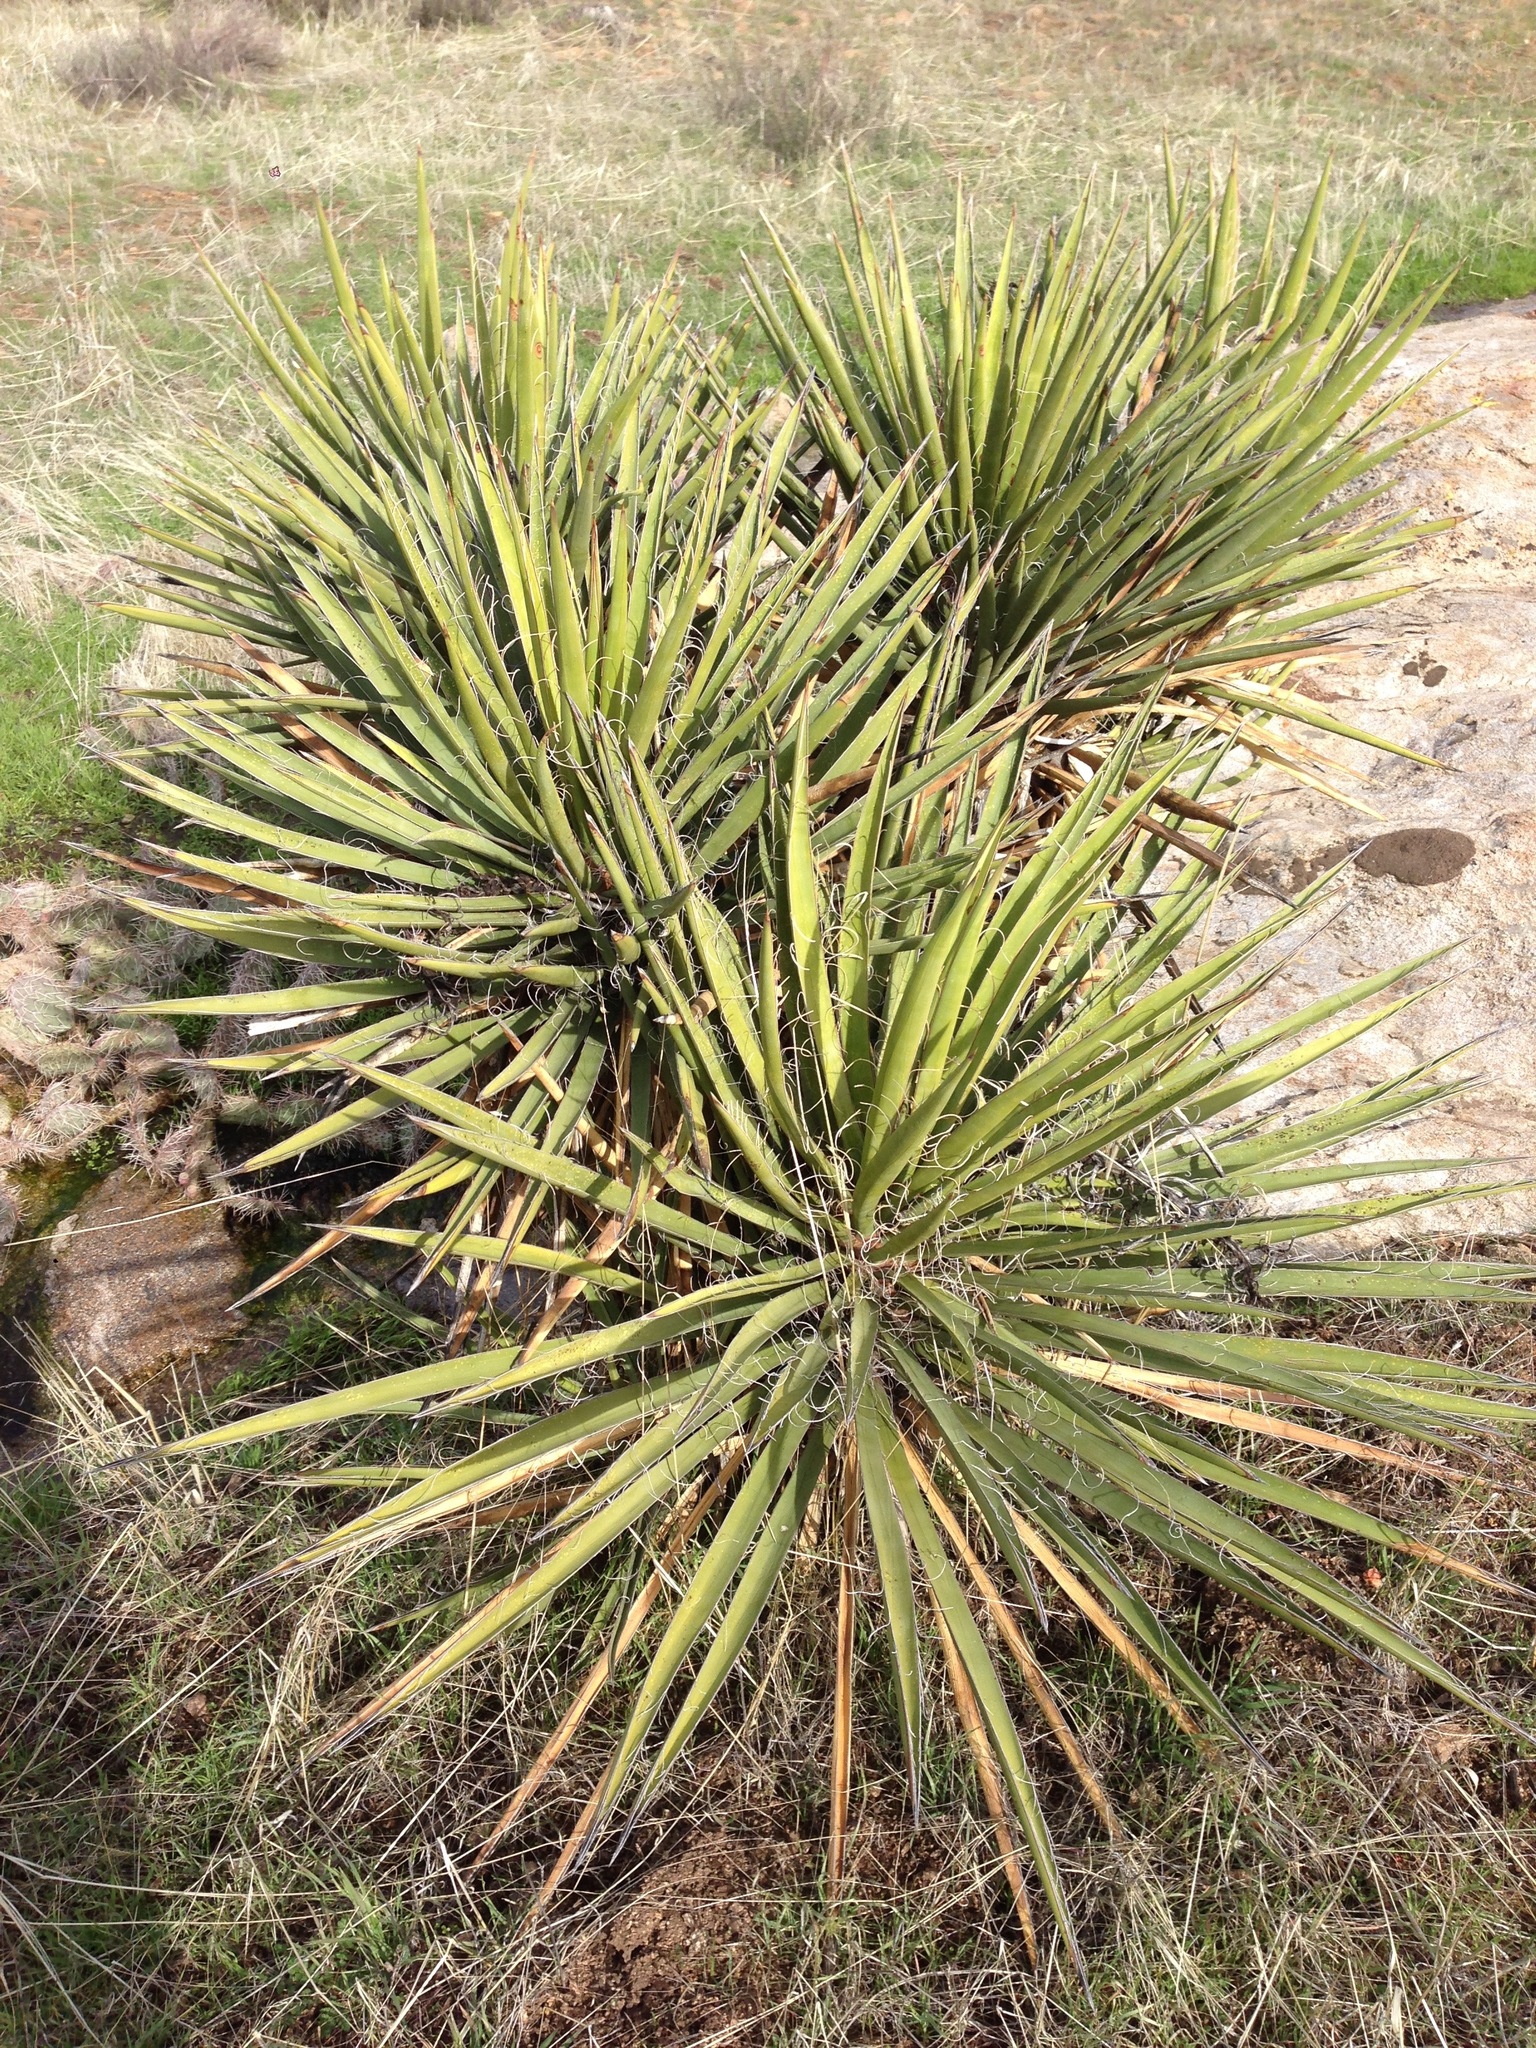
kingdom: Plantae
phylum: Tracheophyta
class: Liliopsida
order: Asparagales
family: Asparagaceae
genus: Yucca
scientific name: Yucca schidigera
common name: Mojave yucca
